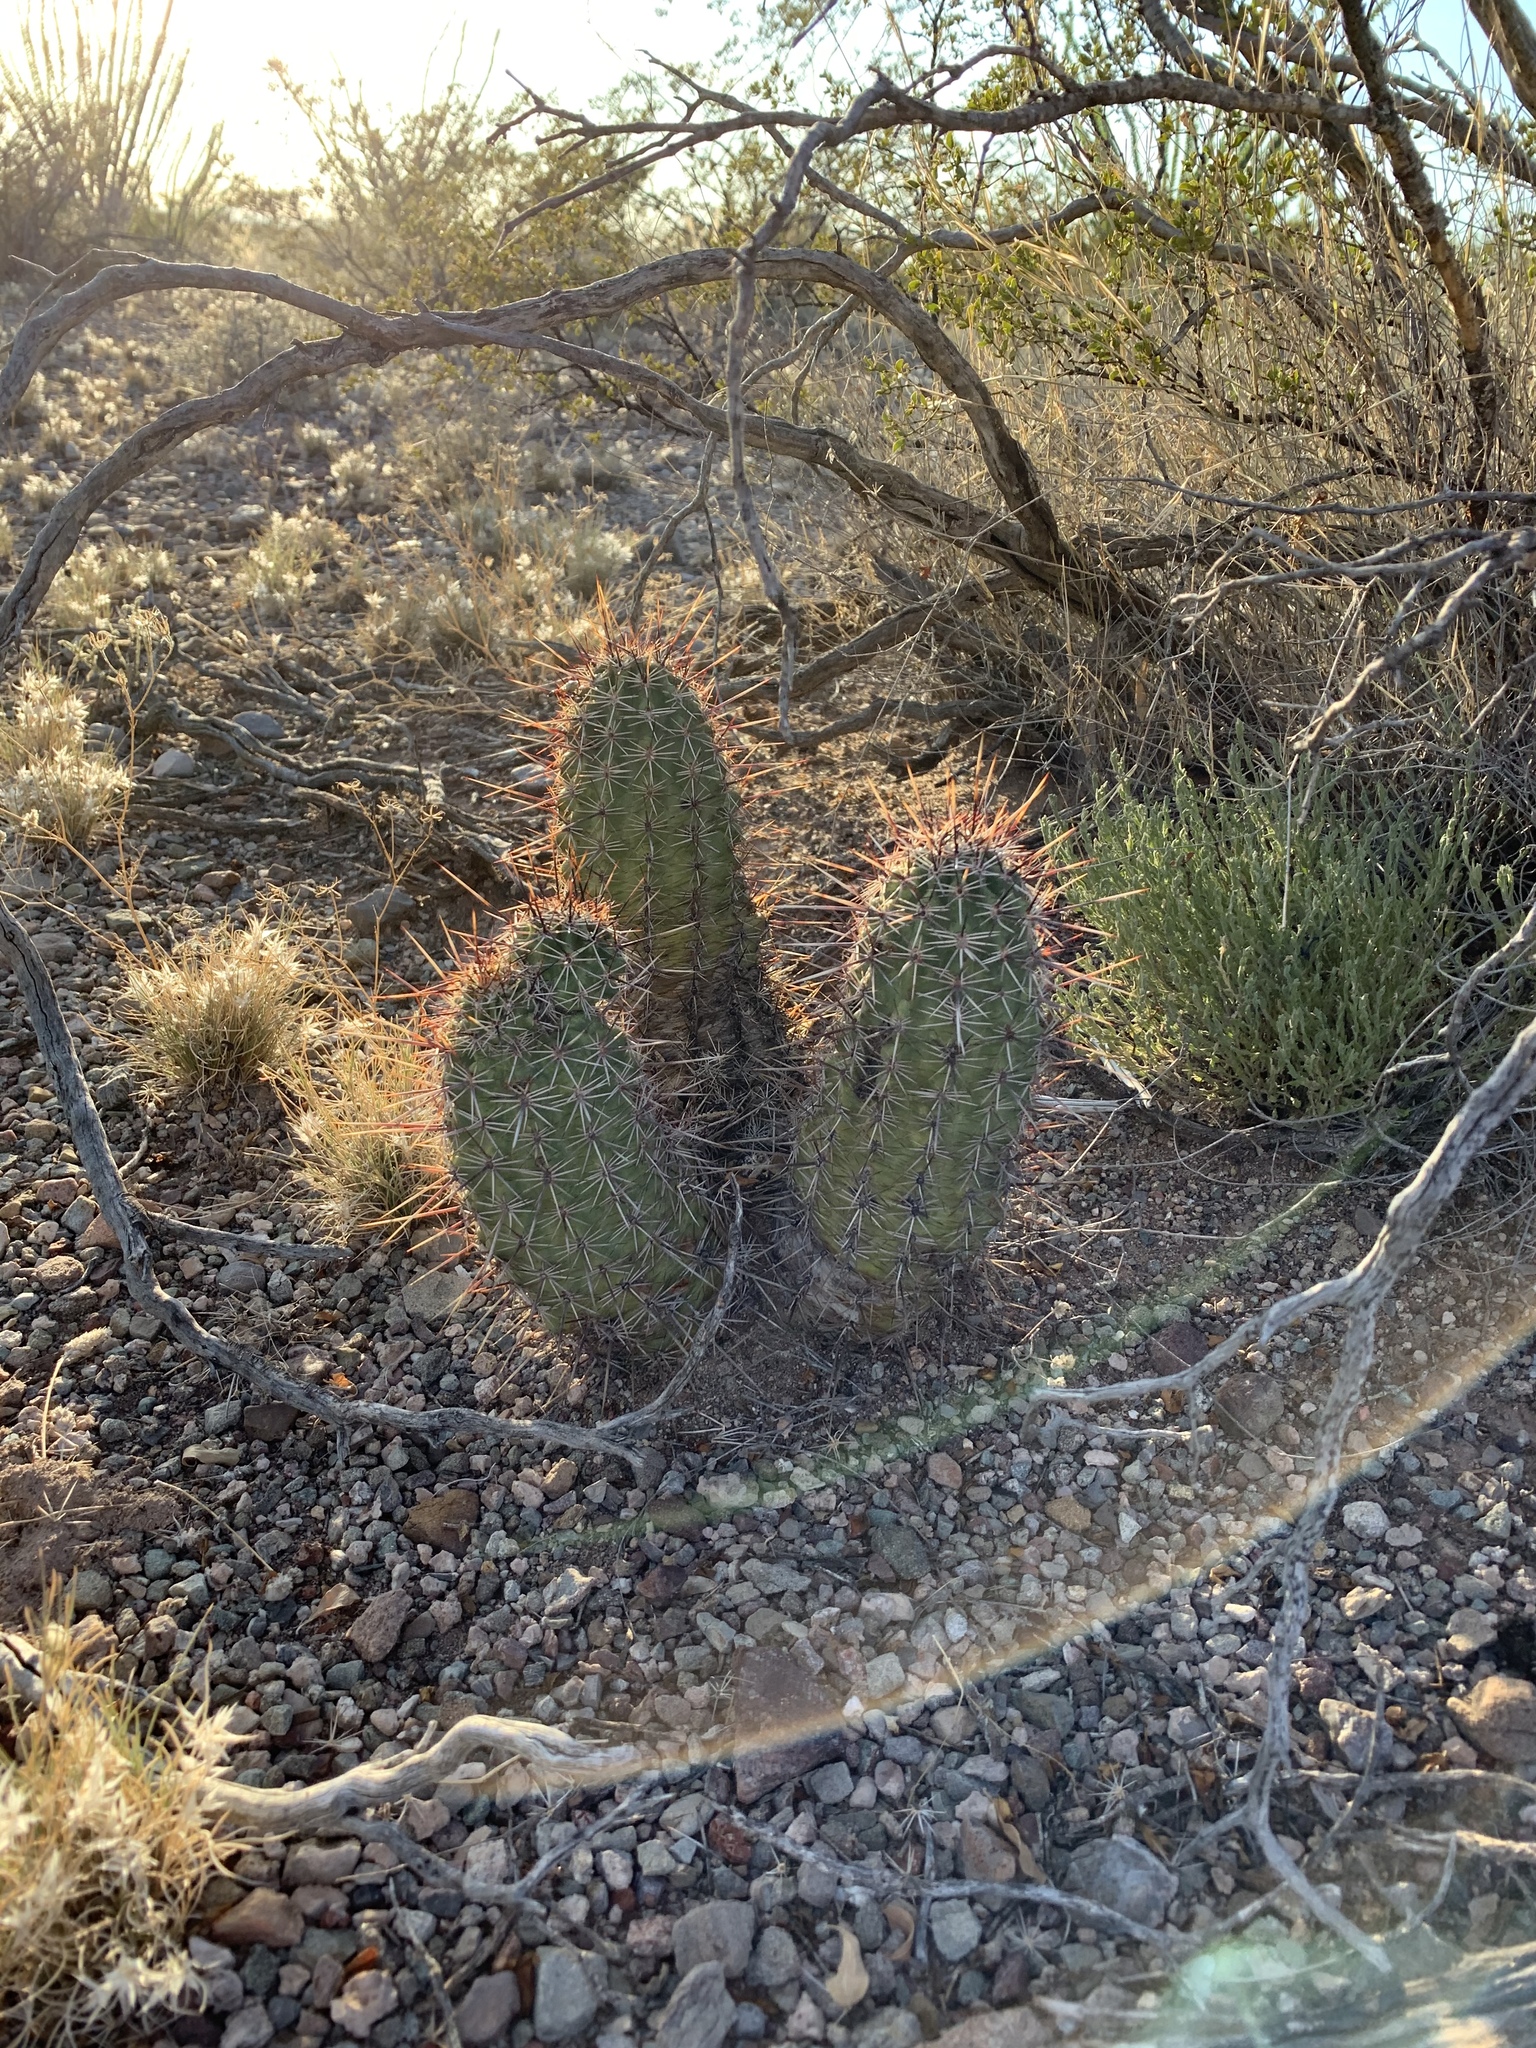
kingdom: Plantae
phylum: Tracheophyta
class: Magnoliopsida
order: Caryophyllales
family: Cactaceae
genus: Echinocereus
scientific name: Echinocereus fasciculatus
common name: Bundle hedgehog
